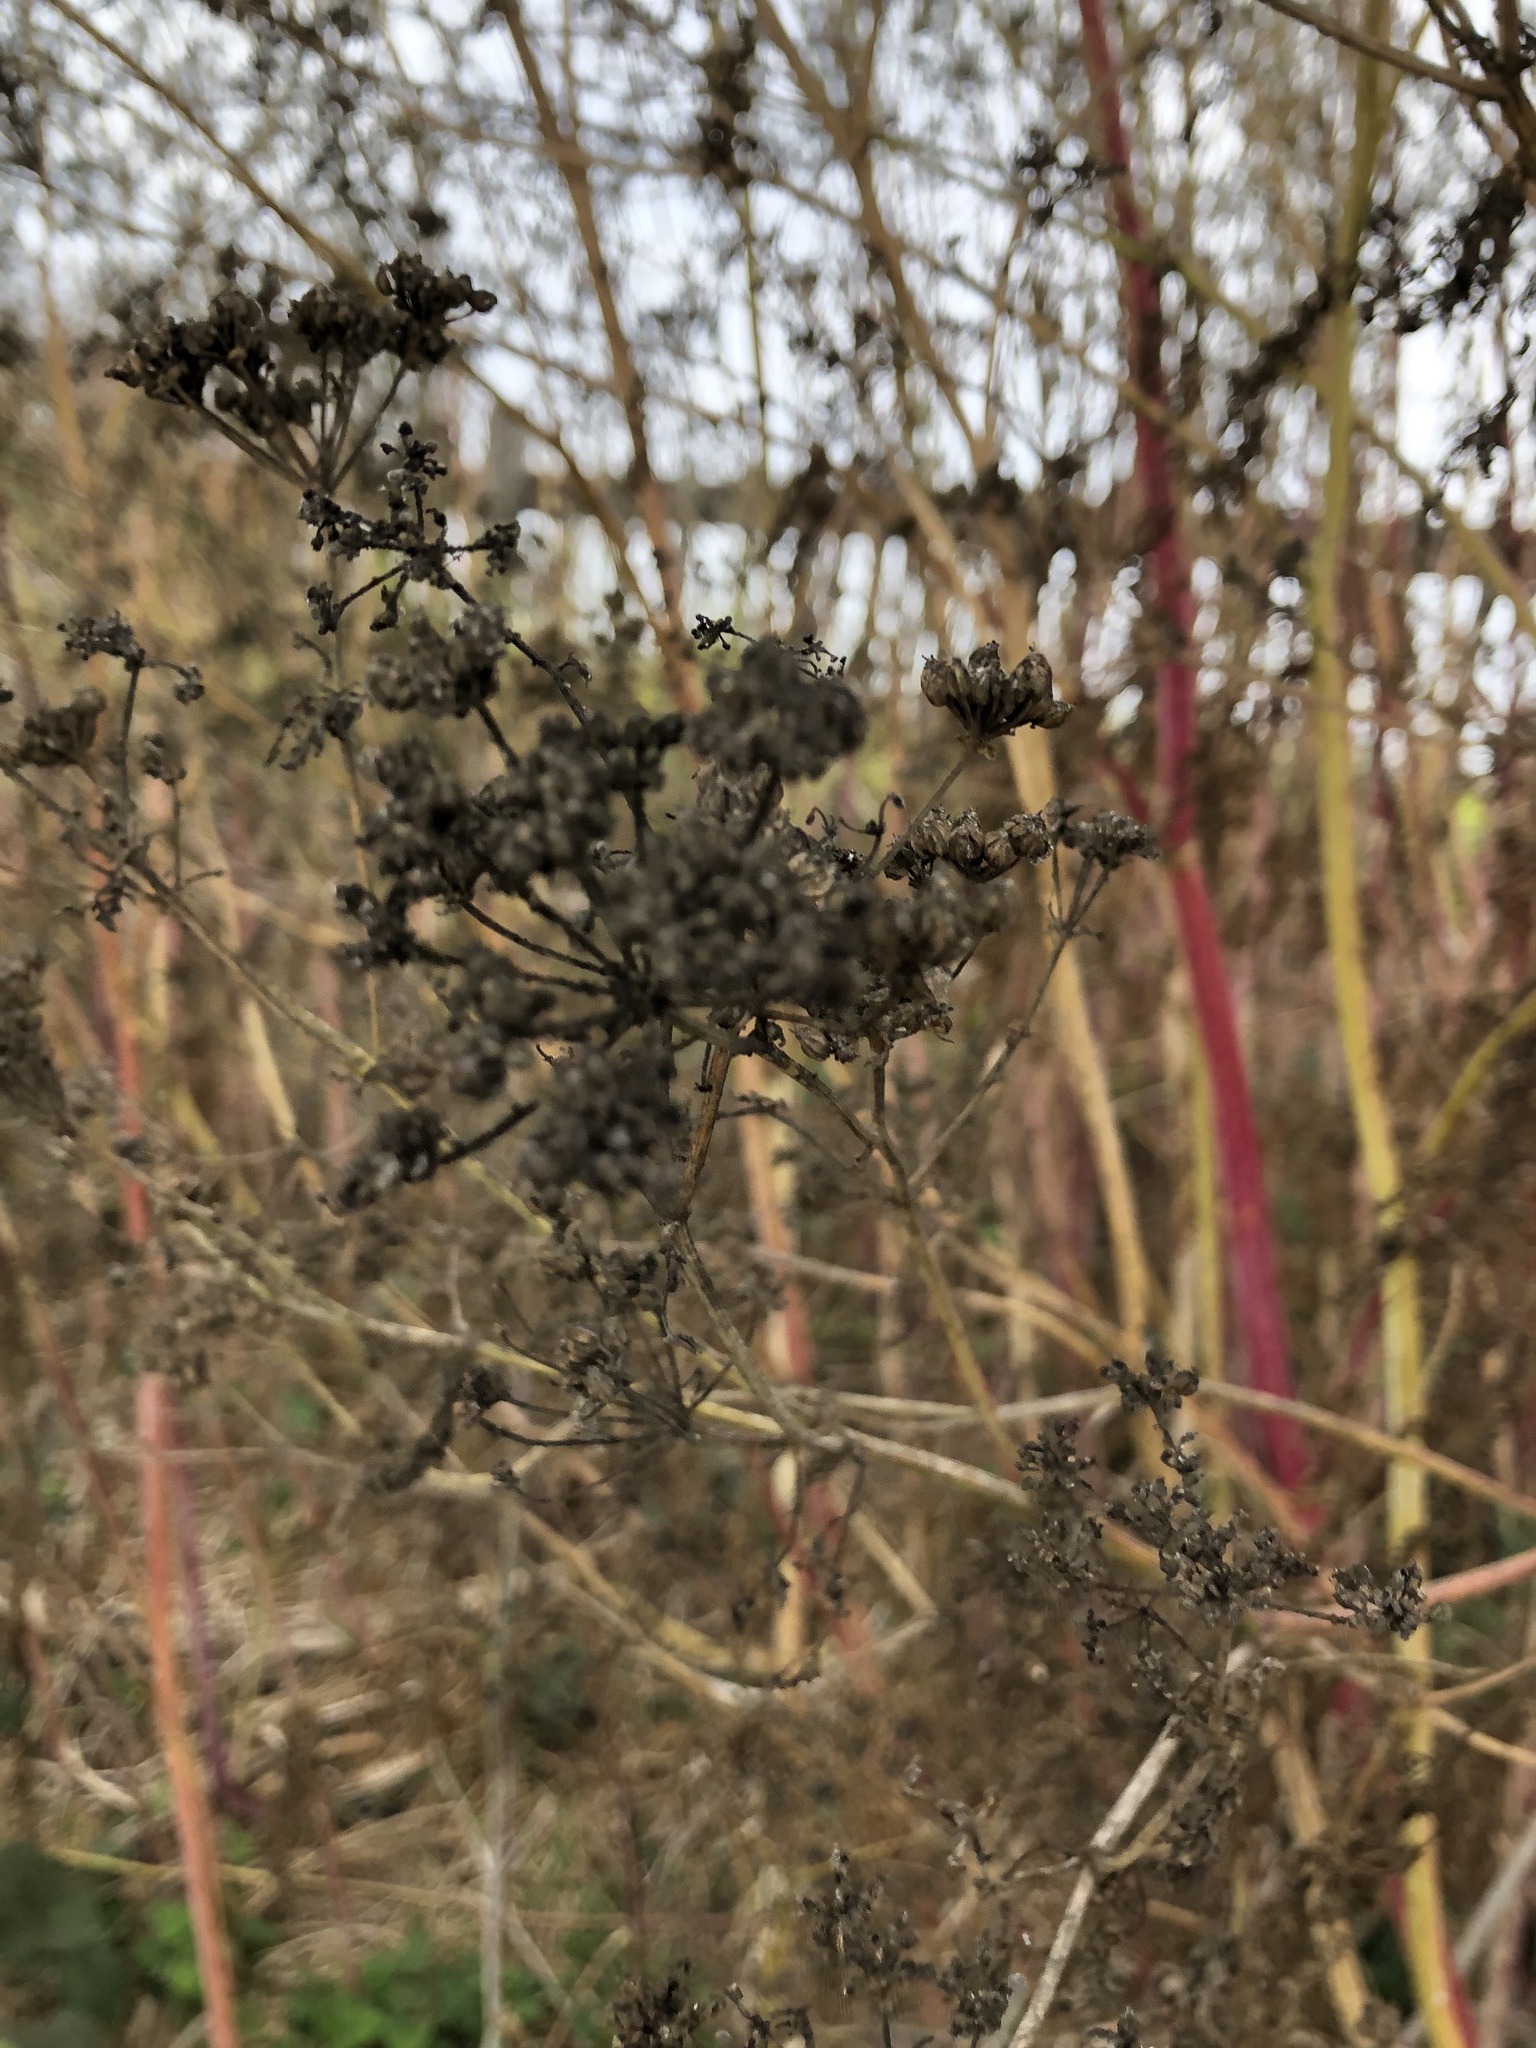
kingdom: Plantae
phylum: Tracheophyta
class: Magnoliopsida
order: Apiales
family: Apiaceae
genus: Conium
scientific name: Conium maculatum
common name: Hemlock
